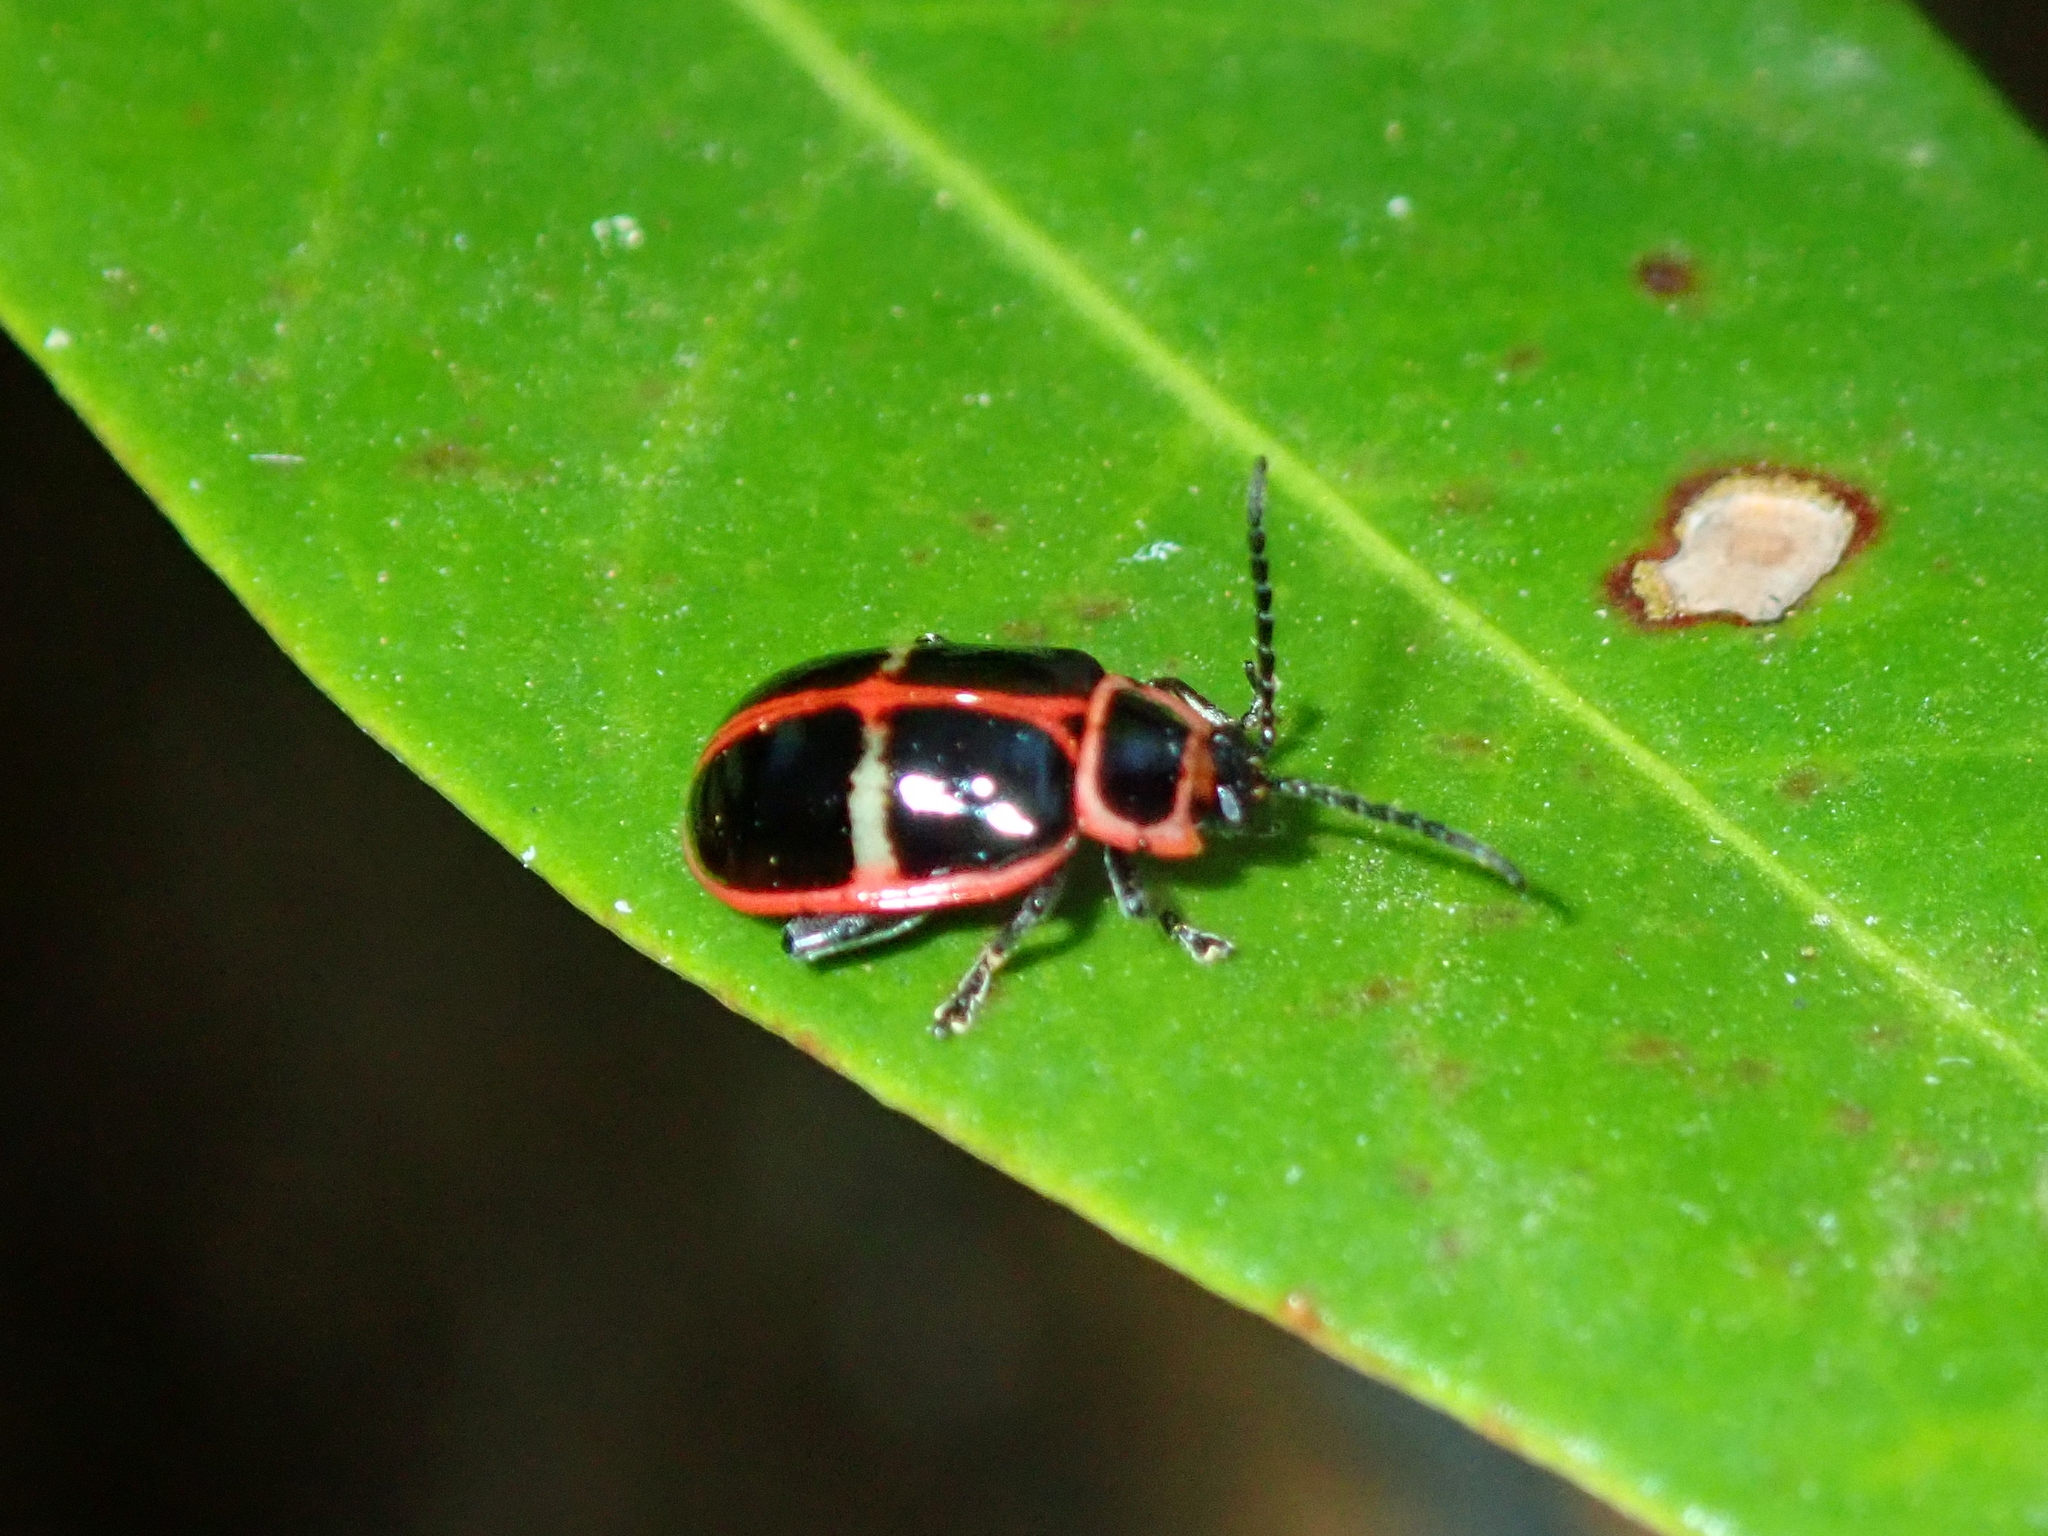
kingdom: Animalia
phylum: Arthropoda
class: Insecta
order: Coleoptera
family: Chrysomelidae
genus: Asphaera
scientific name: Asphaera
